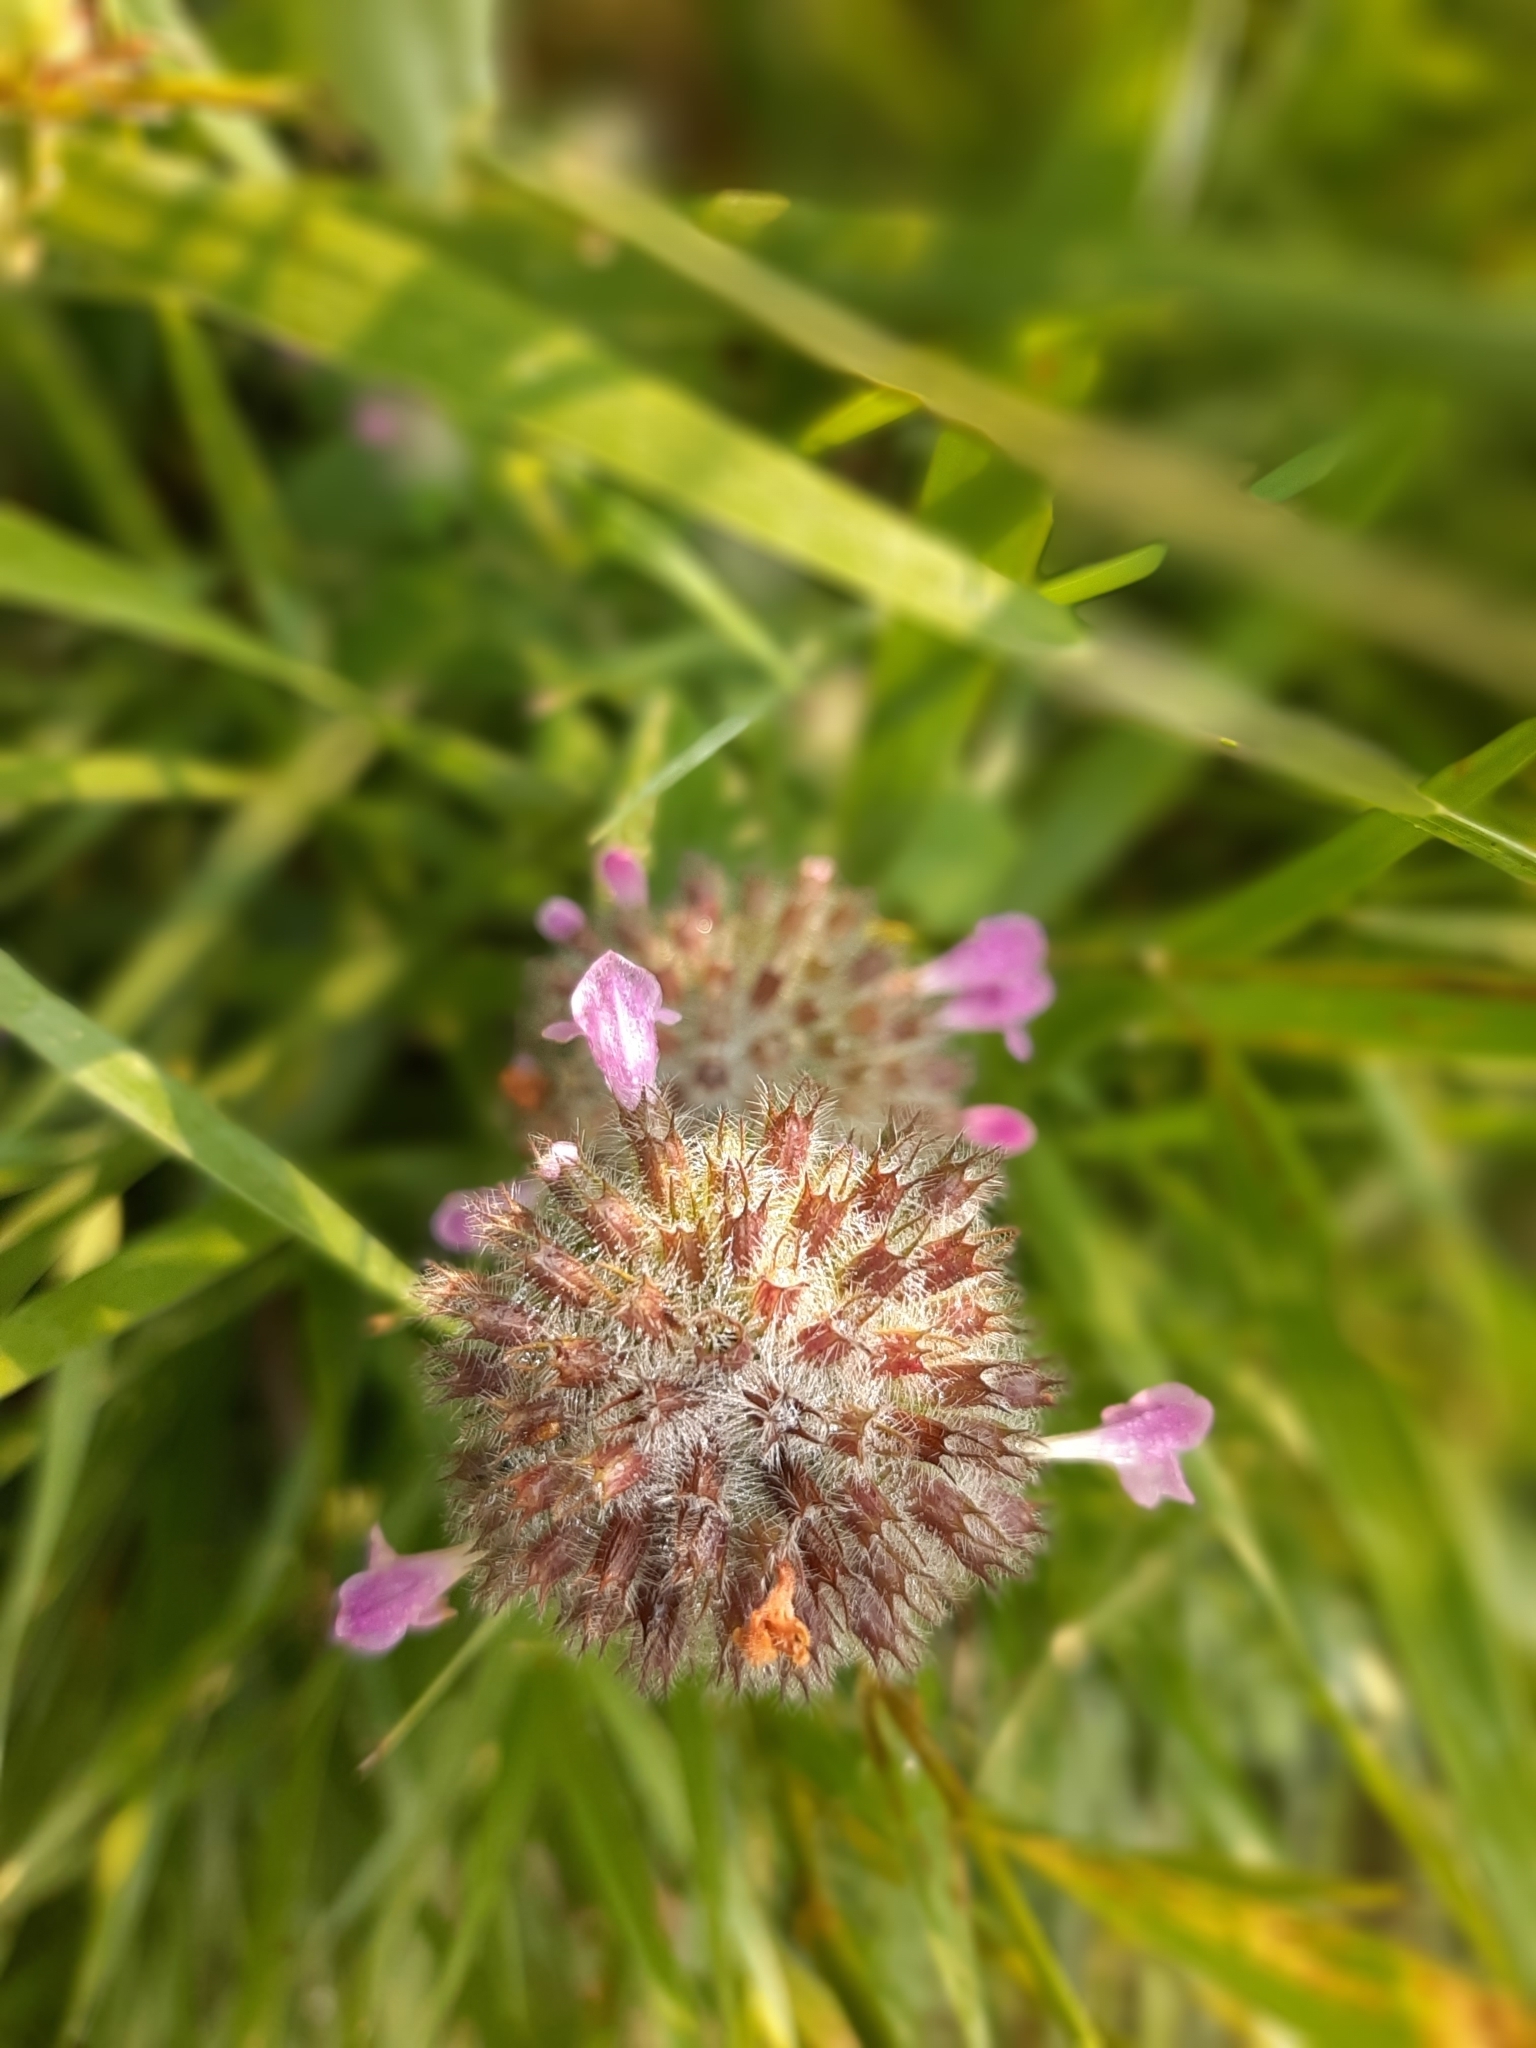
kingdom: Plantae
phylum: Tracheophyta
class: Magnoliopsida
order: Lamiales
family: Lamiaceae
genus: Clinopodium
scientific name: Clinopodium vulgare
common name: Wild basil
